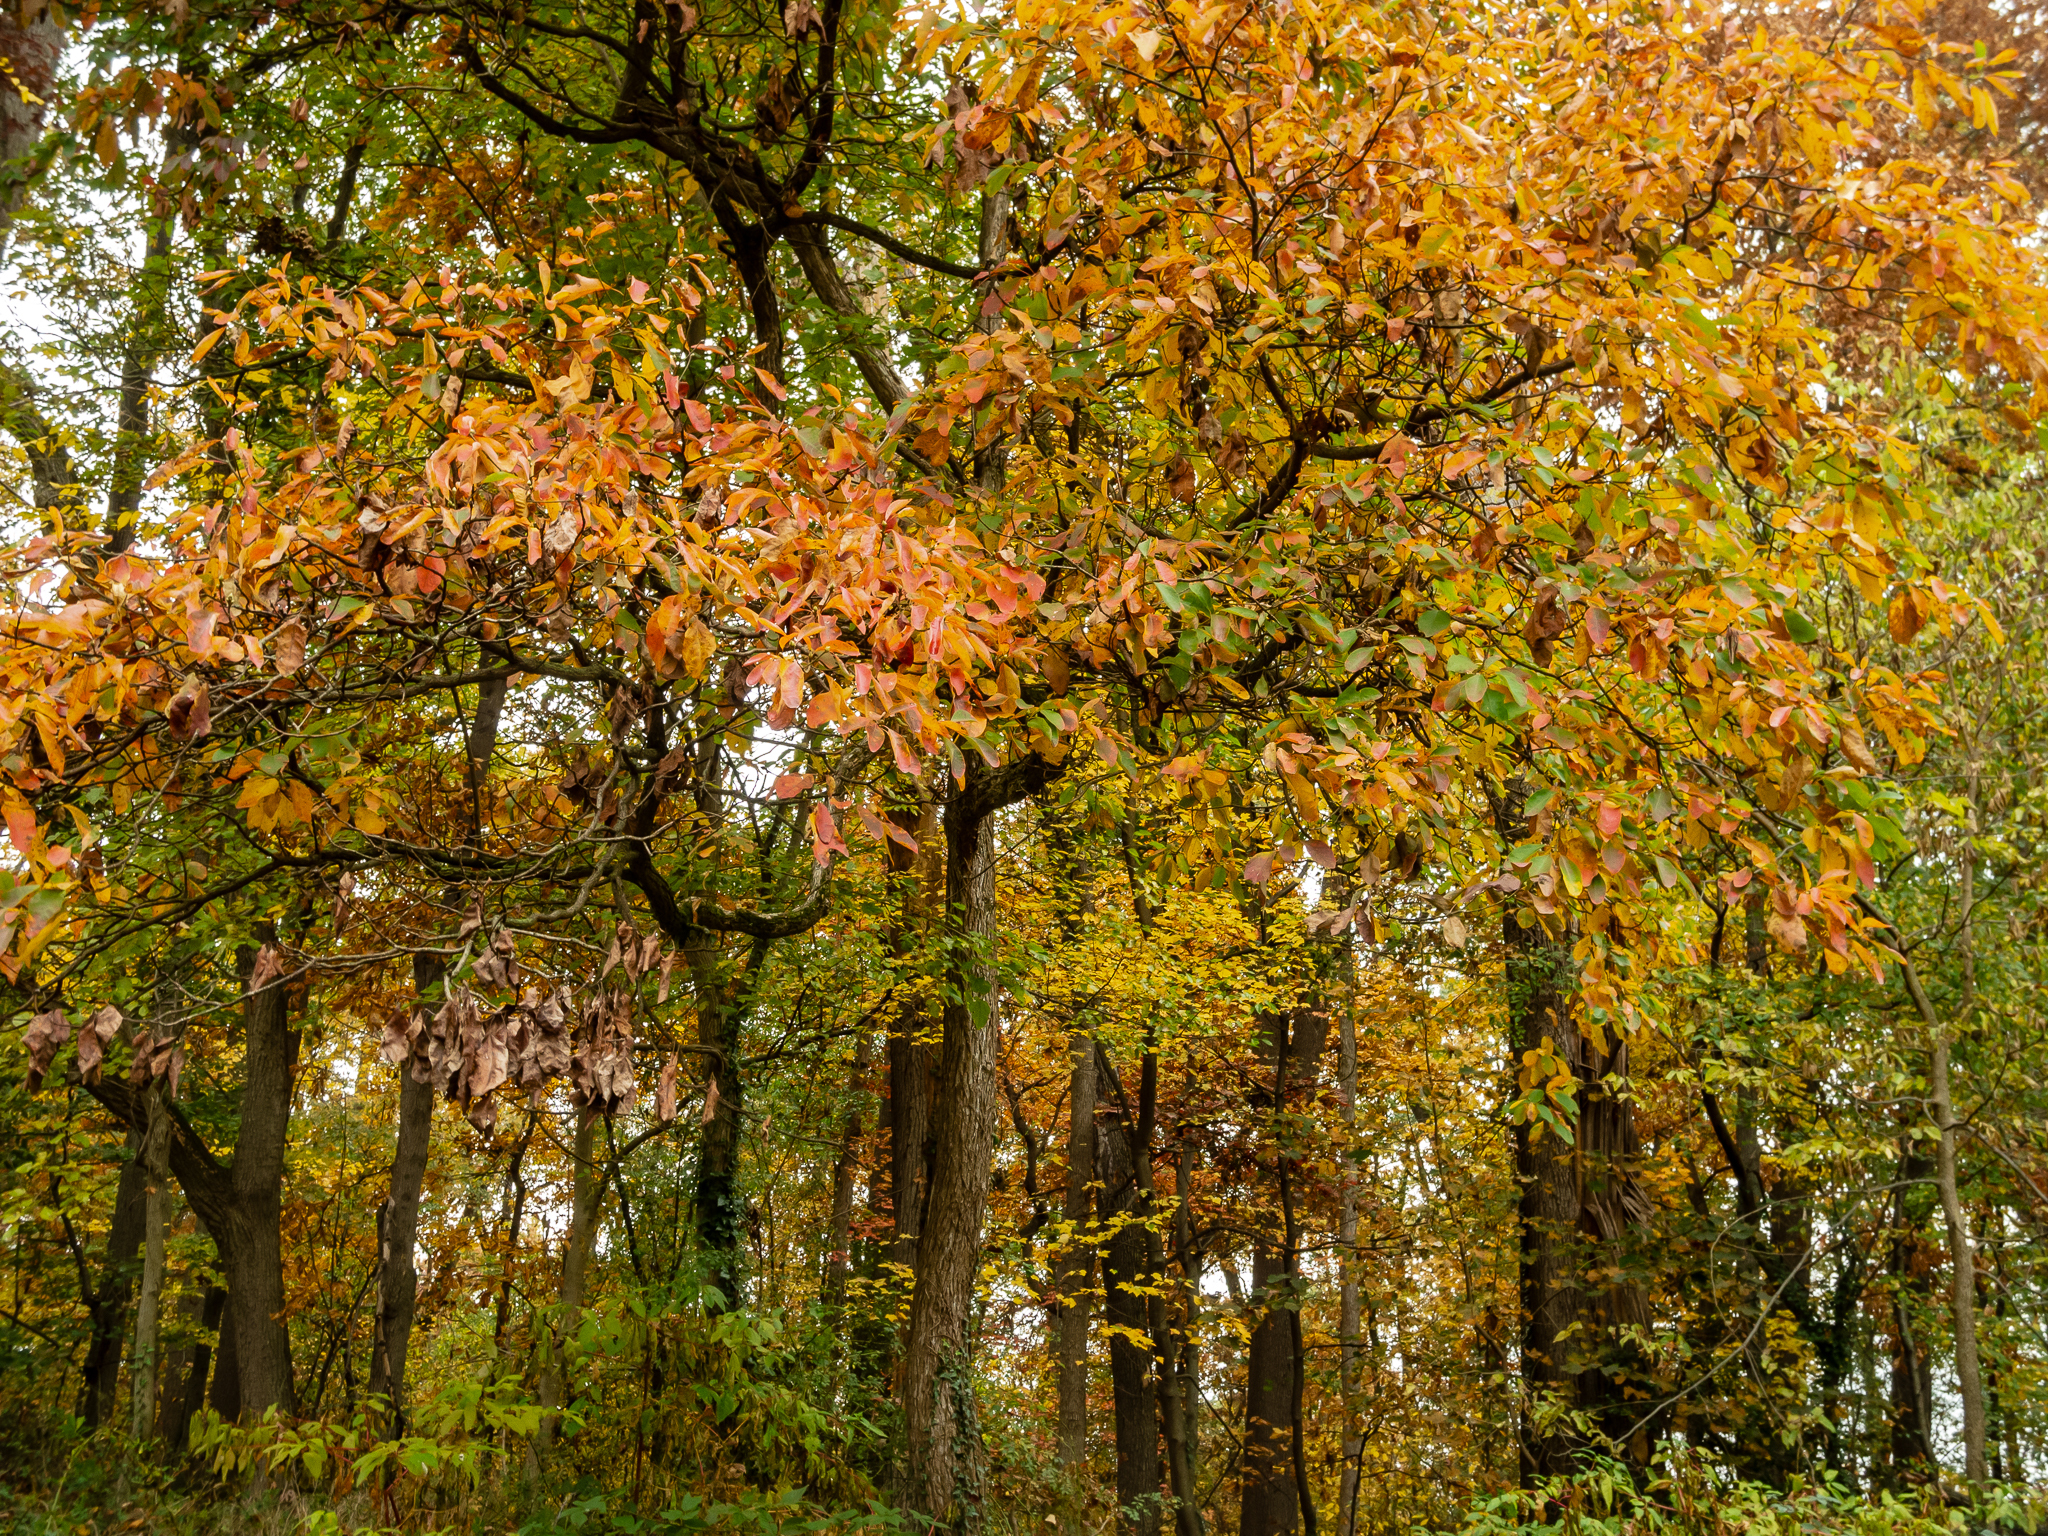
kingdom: Plantae
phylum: Tracheophyta
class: Magnoliopsida
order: Laurales
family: Lauraceae
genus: Sassafras
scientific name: Sassafras albidum
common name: Sassafras
